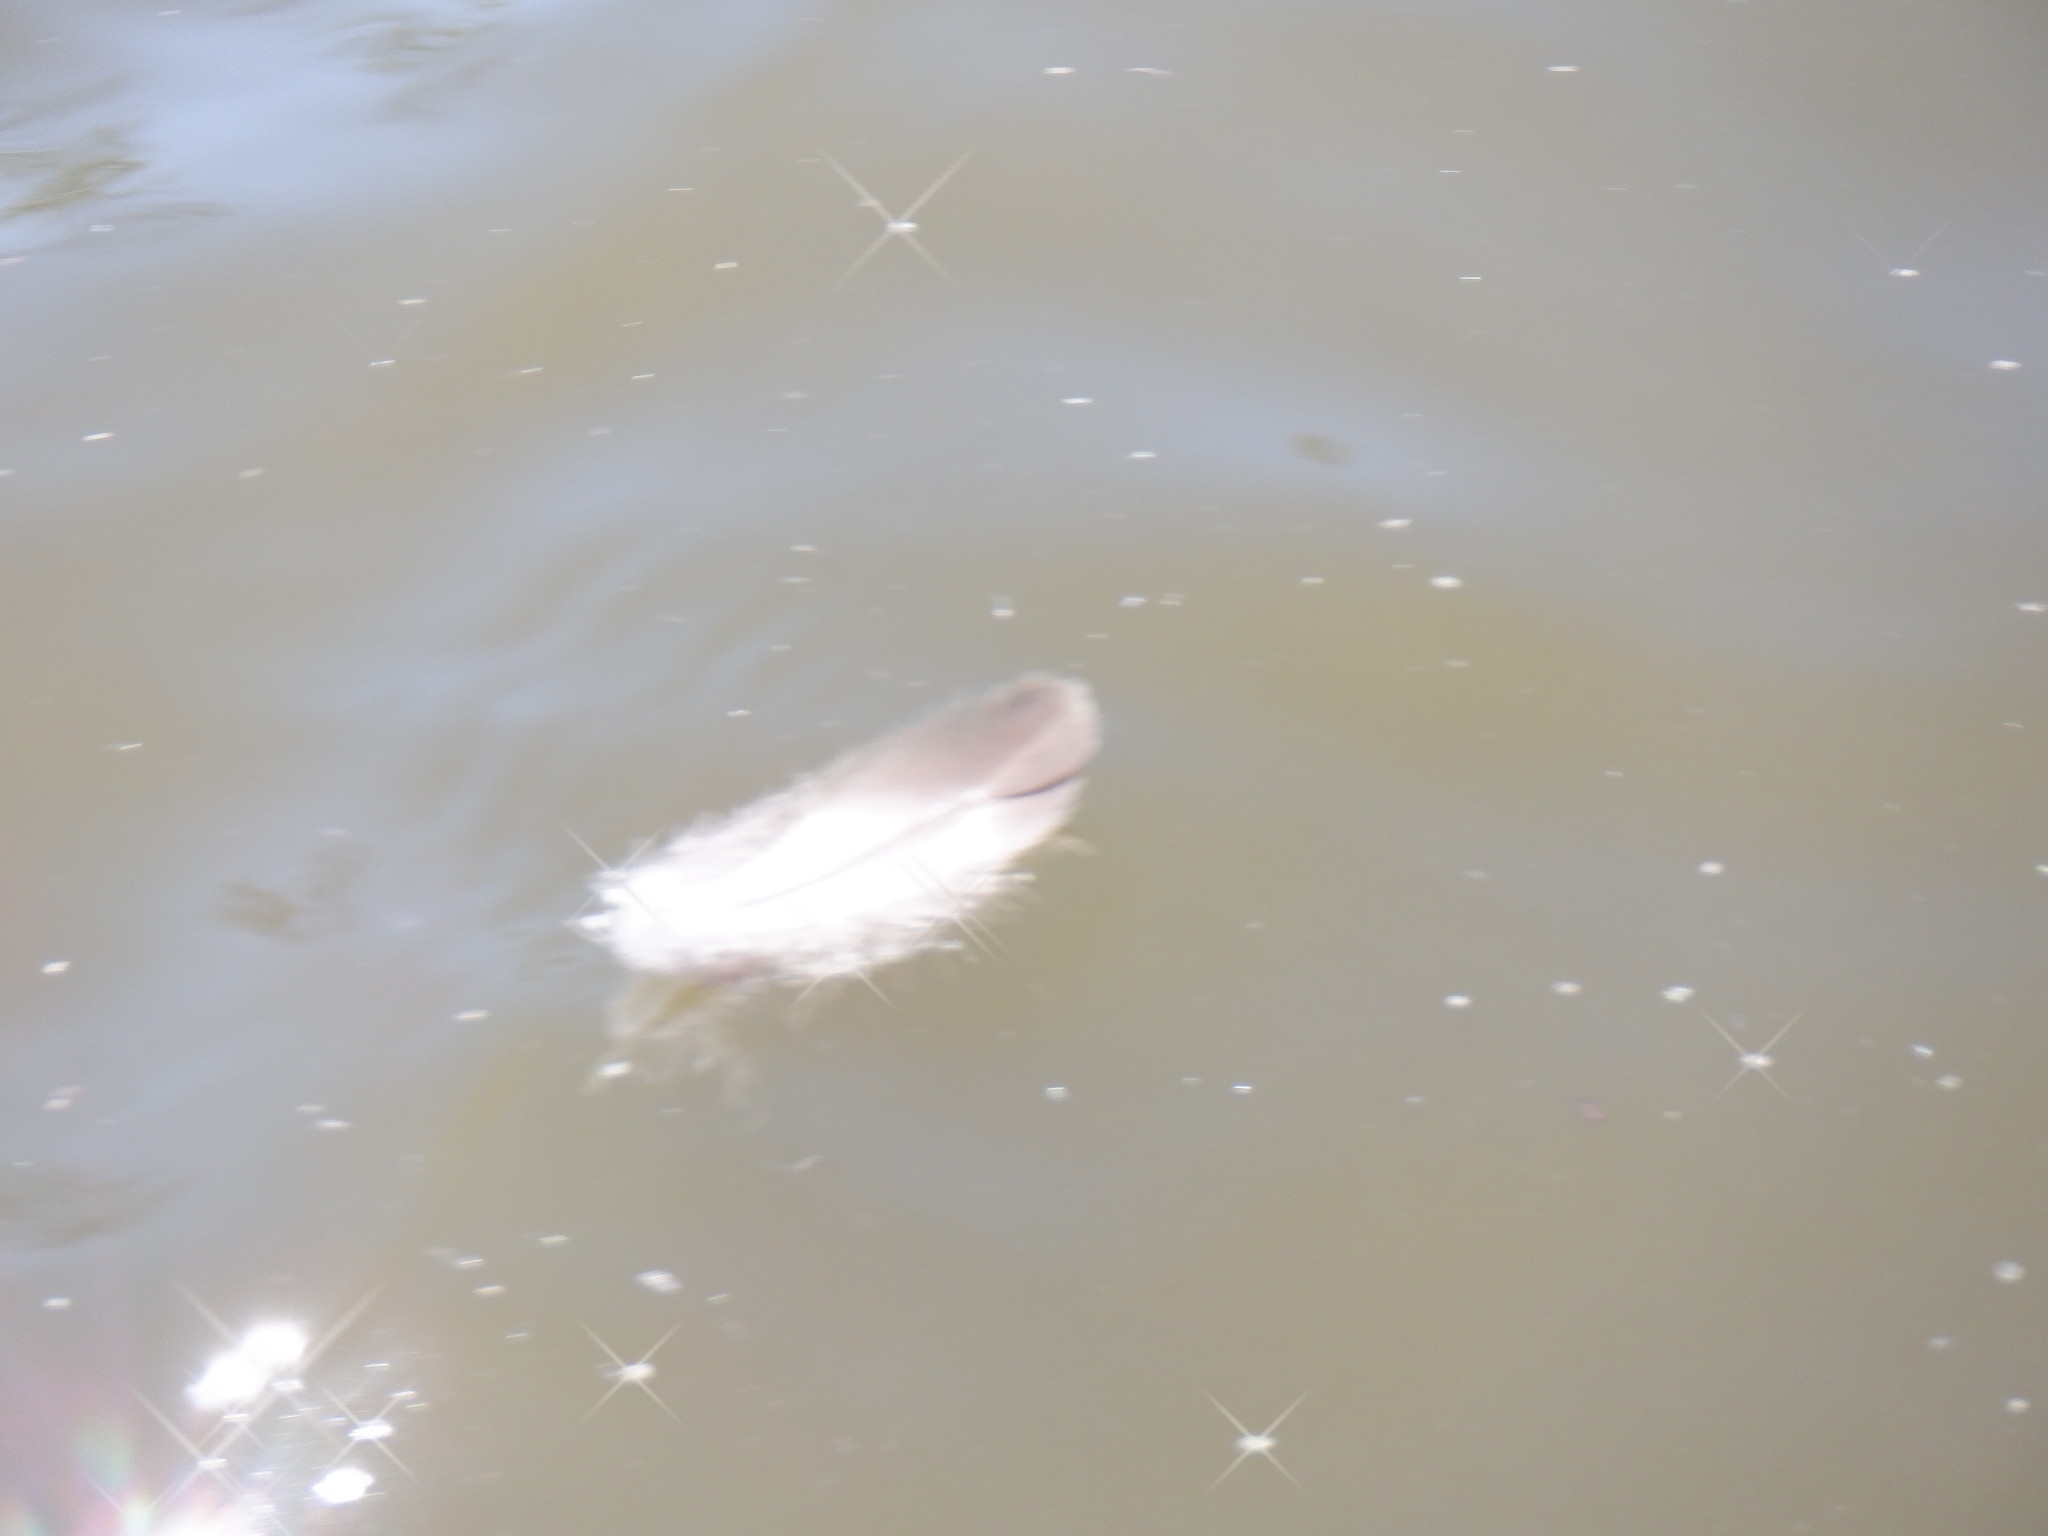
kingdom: Animalia
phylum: Chordata
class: Aves
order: Anseriformes
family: Anatidae
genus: Branta
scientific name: Branta canadensis
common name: Canada goose
